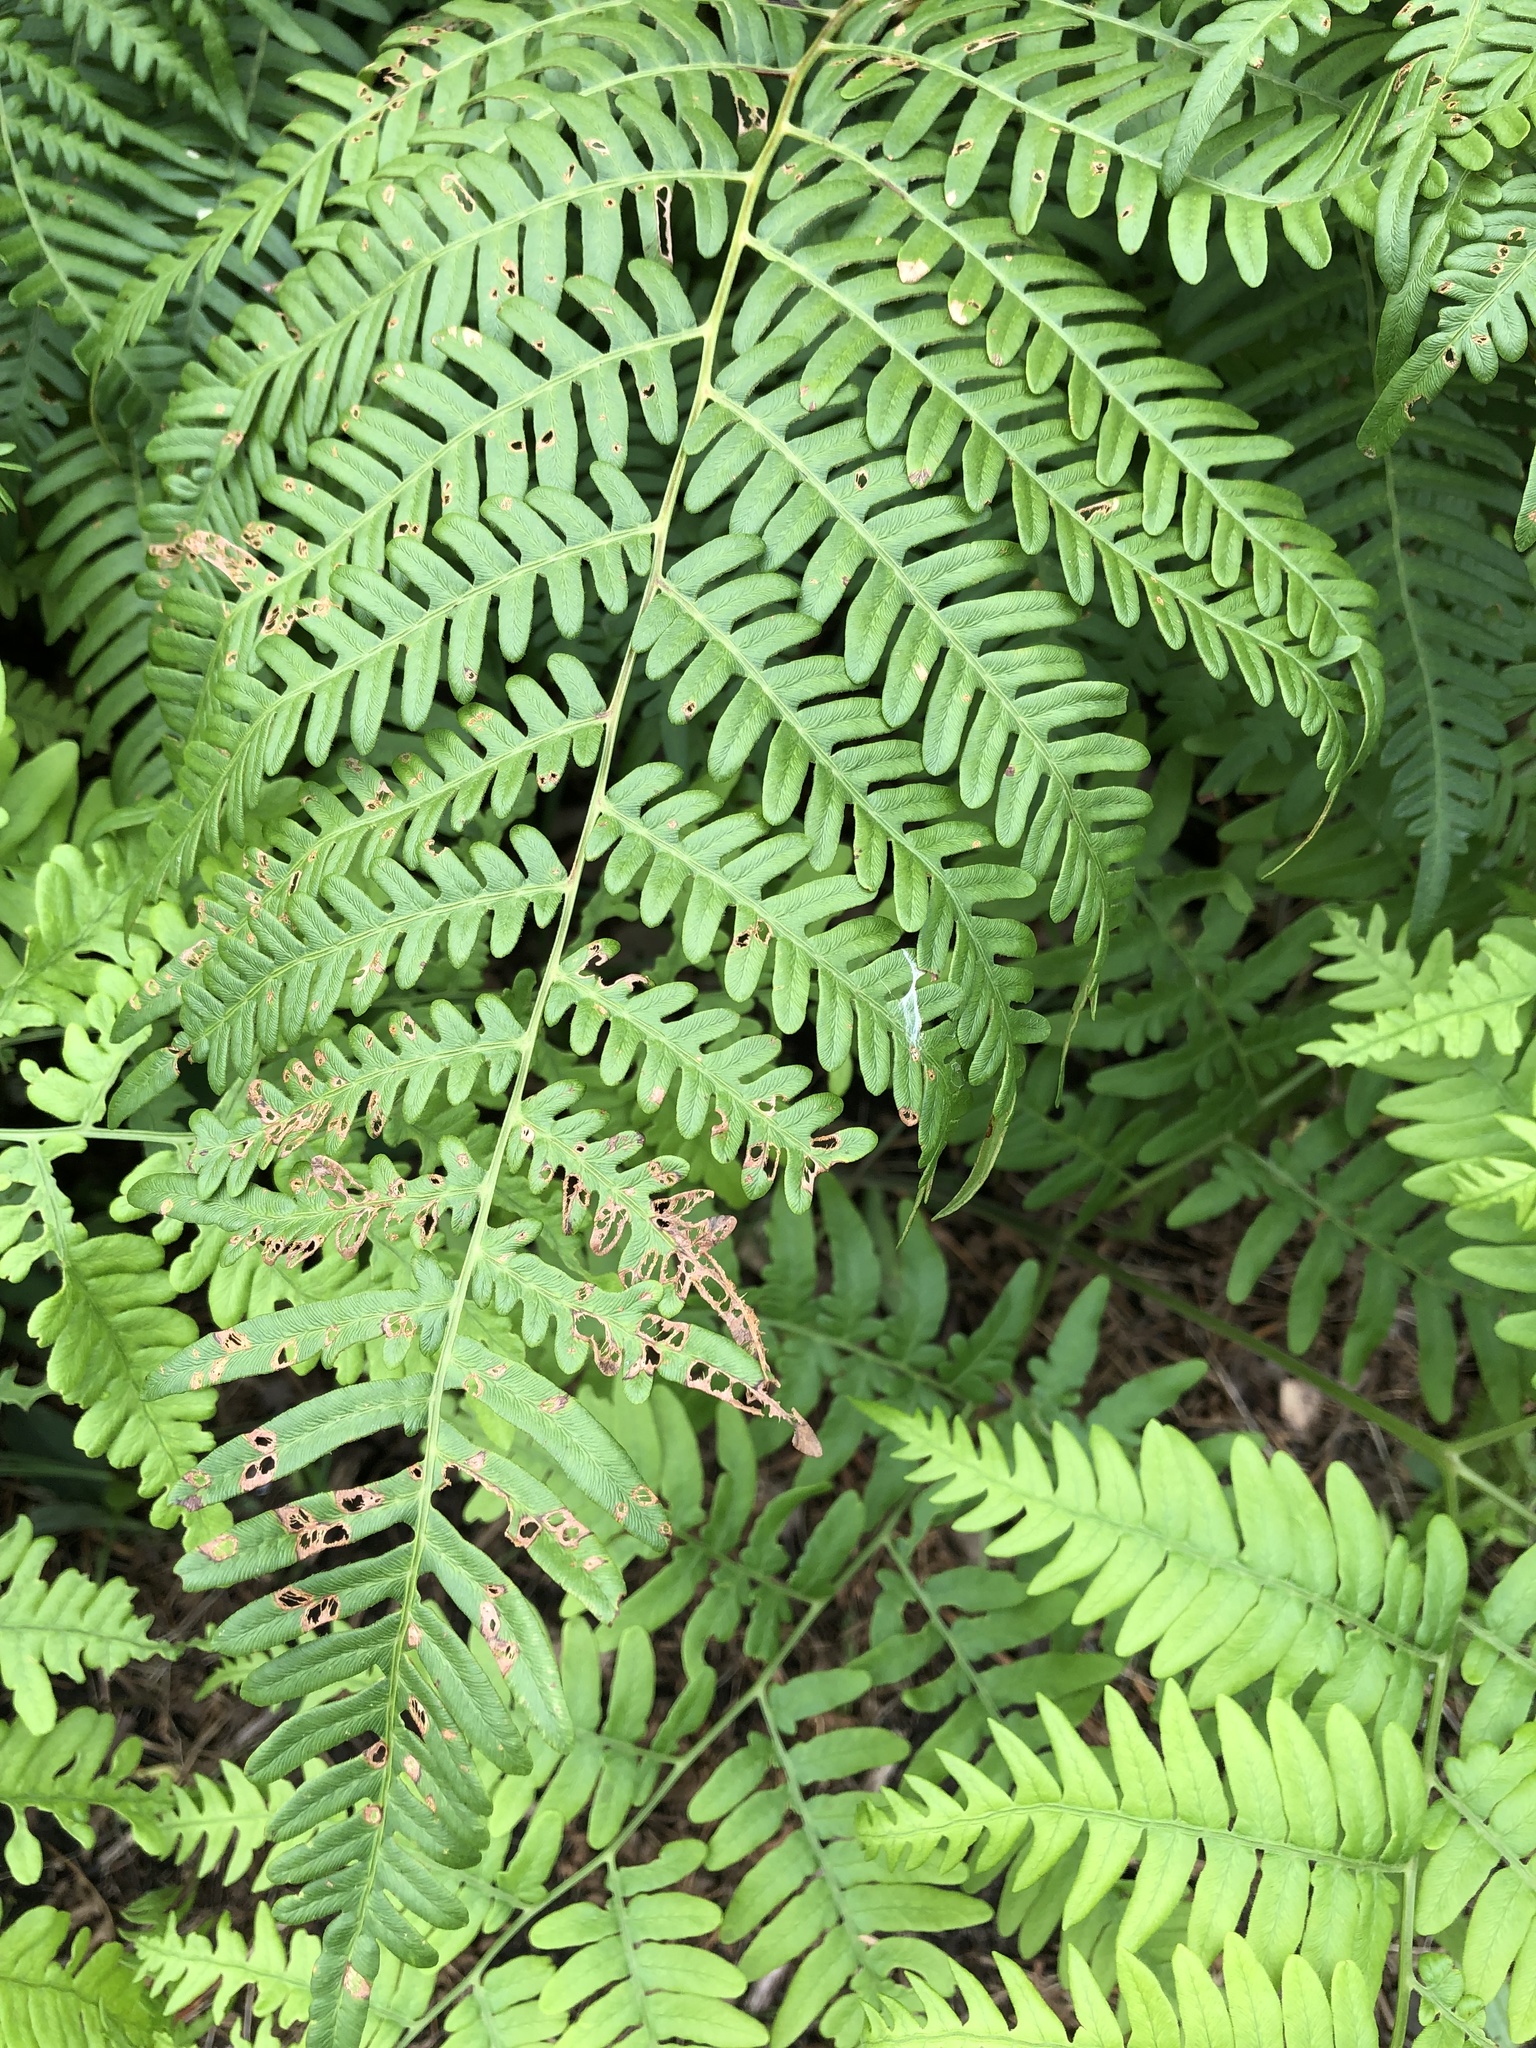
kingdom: Plantae
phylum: Tracheophyta
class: Polypodiopsida
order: Polypodiales
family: Dennstaedtiaceae
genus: Pteridium
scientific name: Pteridium aquilinum
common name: Bracken
